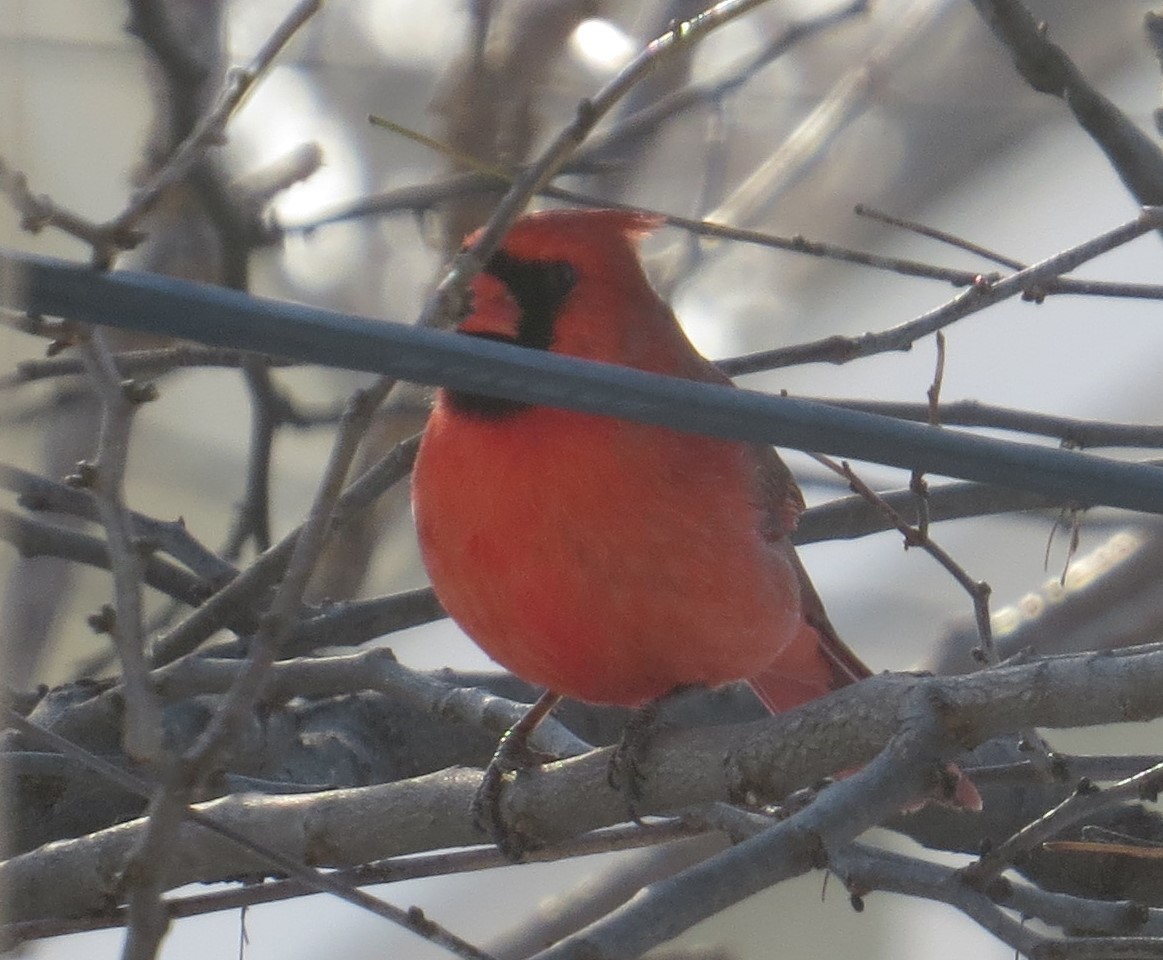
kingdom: Animalia
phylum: Chordata
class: Aves
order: Passeriformes
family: Cardinalidae
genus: Cardinalis
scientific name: Cardinalis cardinalis
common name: Northern cardinal
